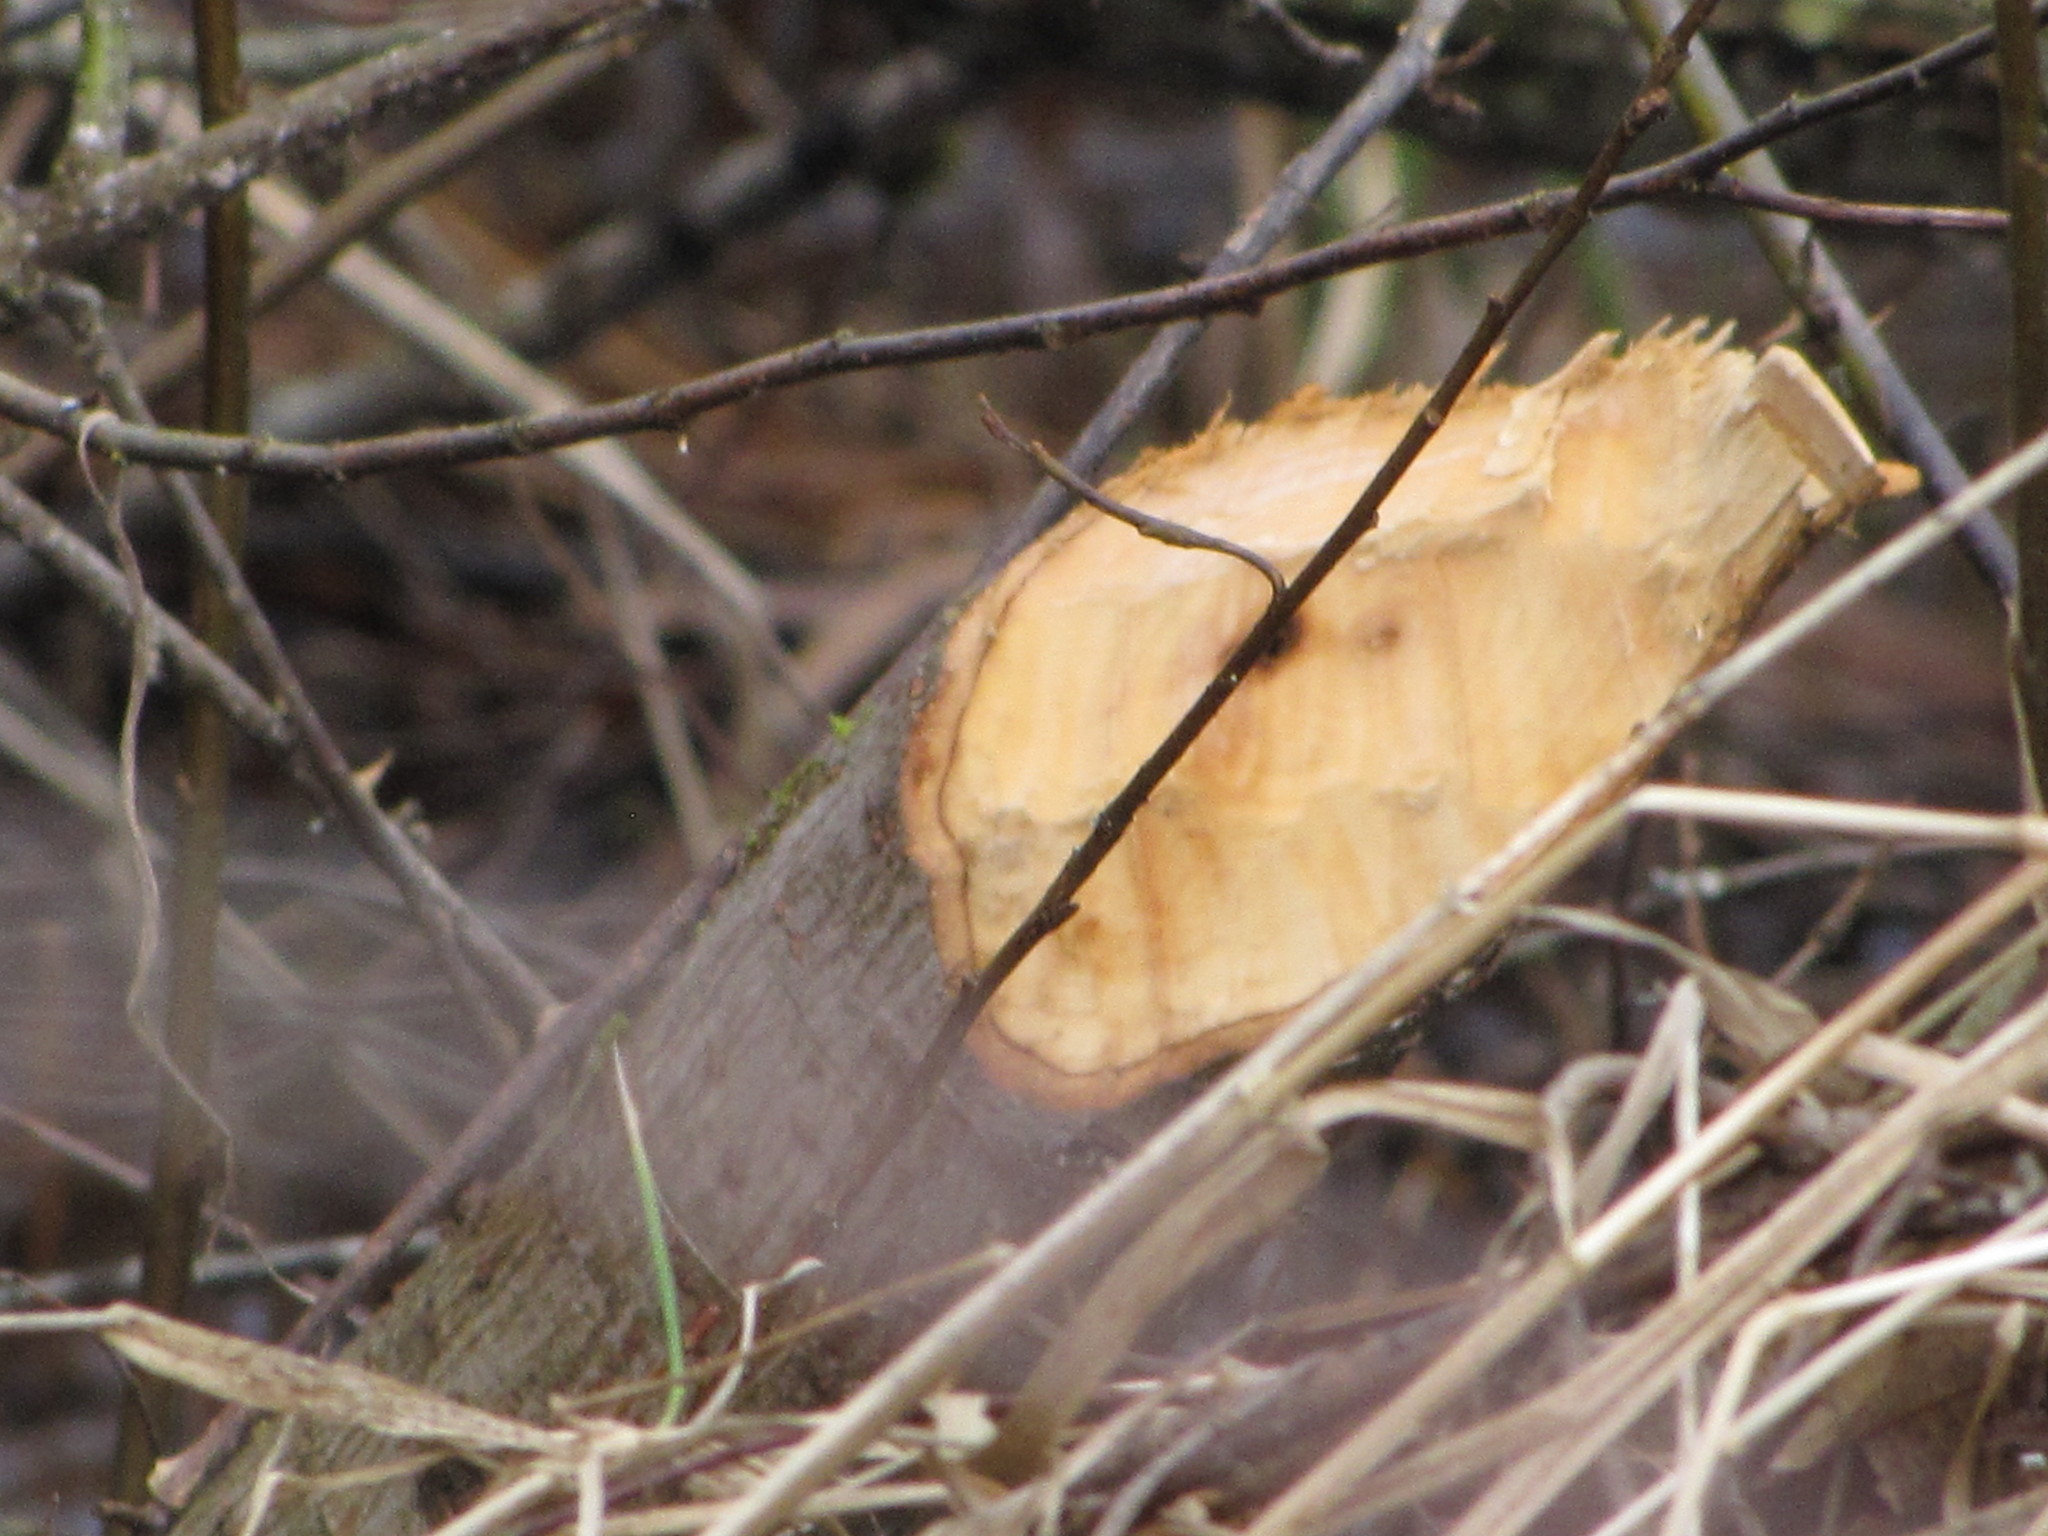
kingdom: Animalia
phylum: Chordata
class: Mammalia
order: Rodentia
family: Castoridae
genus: Castor
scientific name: Castor canadensis
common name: American beaver
